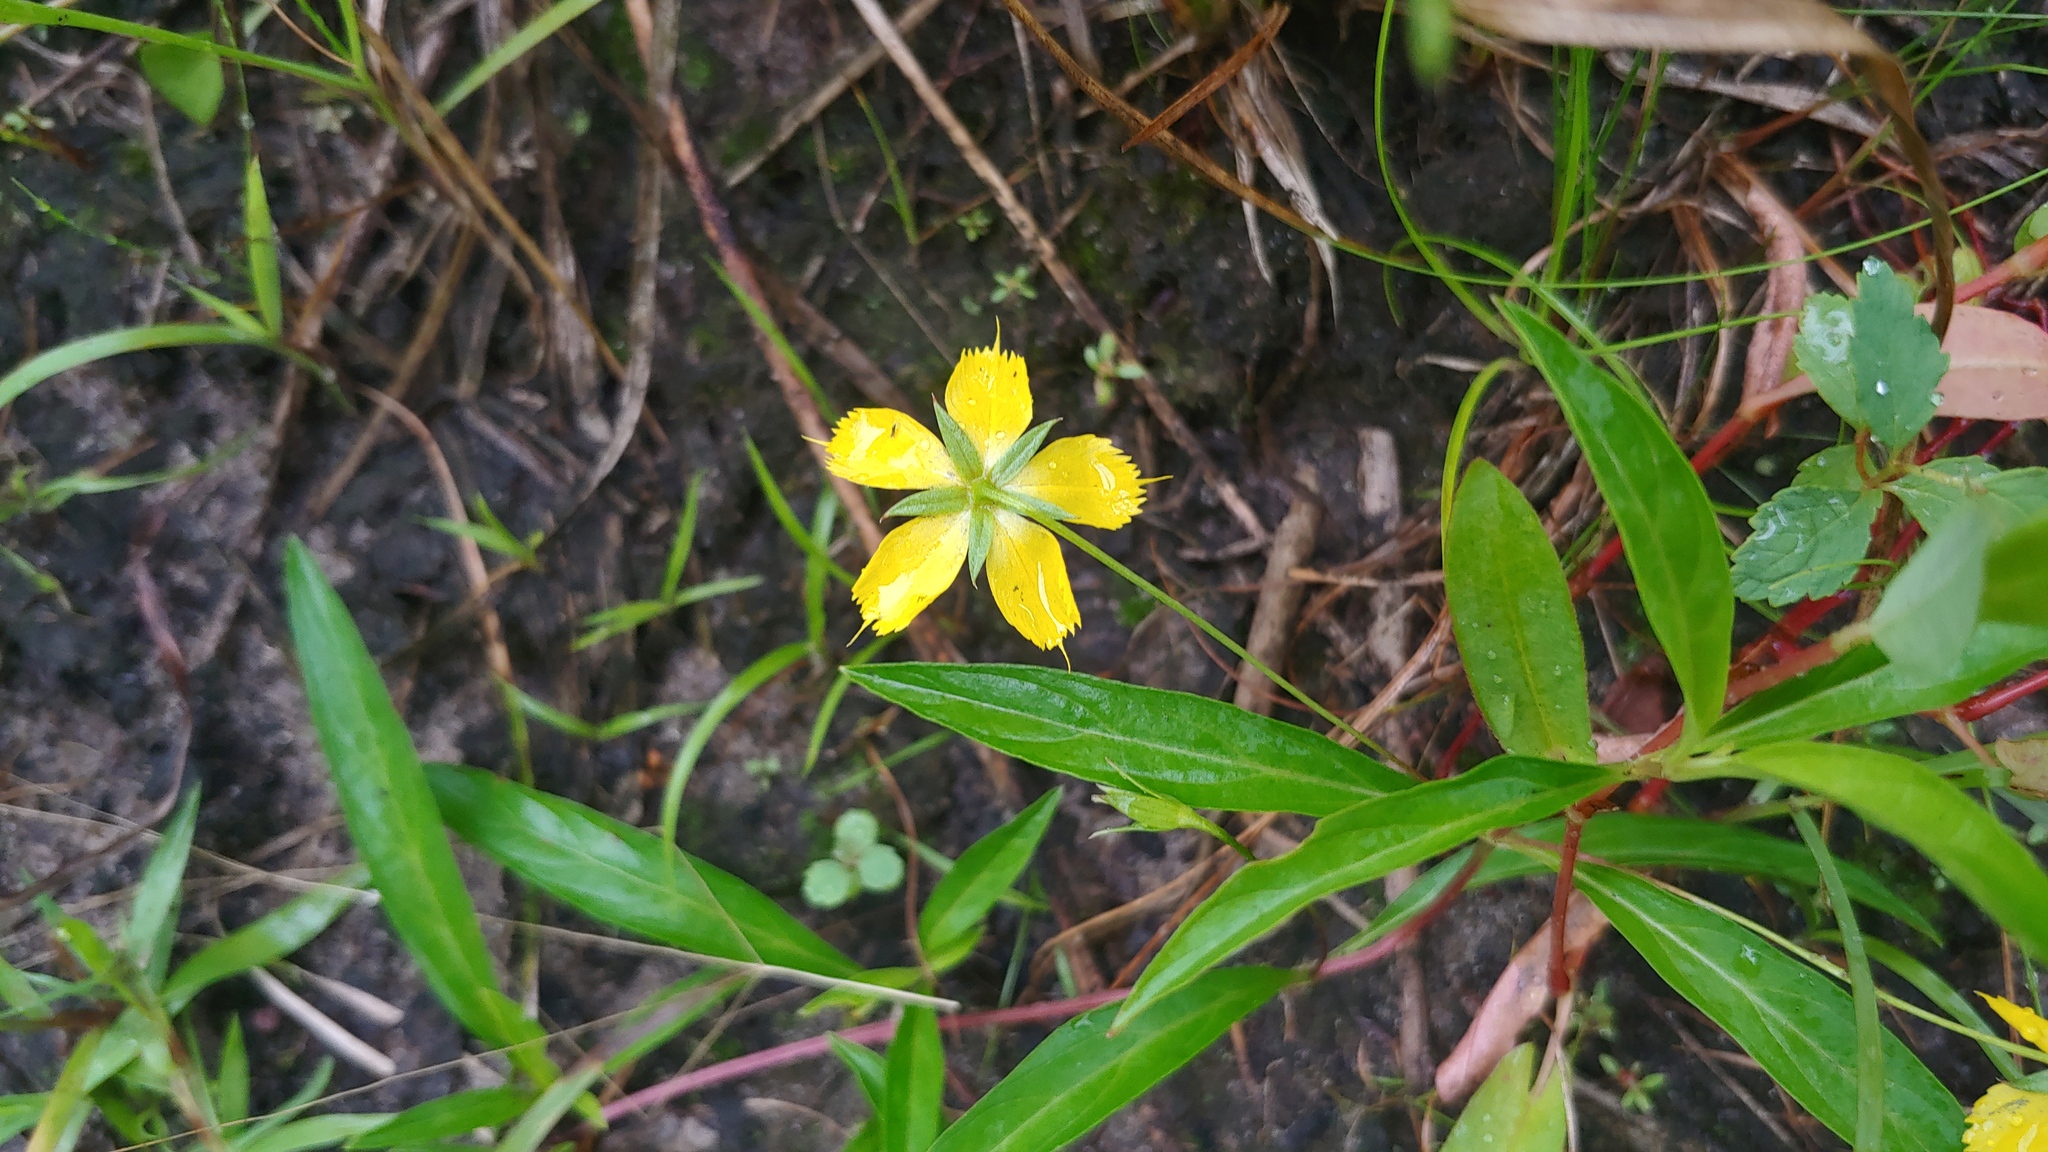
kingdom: Plantae
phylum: Tracheophyta
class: Magnoliopsida
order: Ericales
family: Primulaceae
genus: Lysimachia
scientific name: Lysimachia lanceolata
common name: Lance-leaved loosestrife
